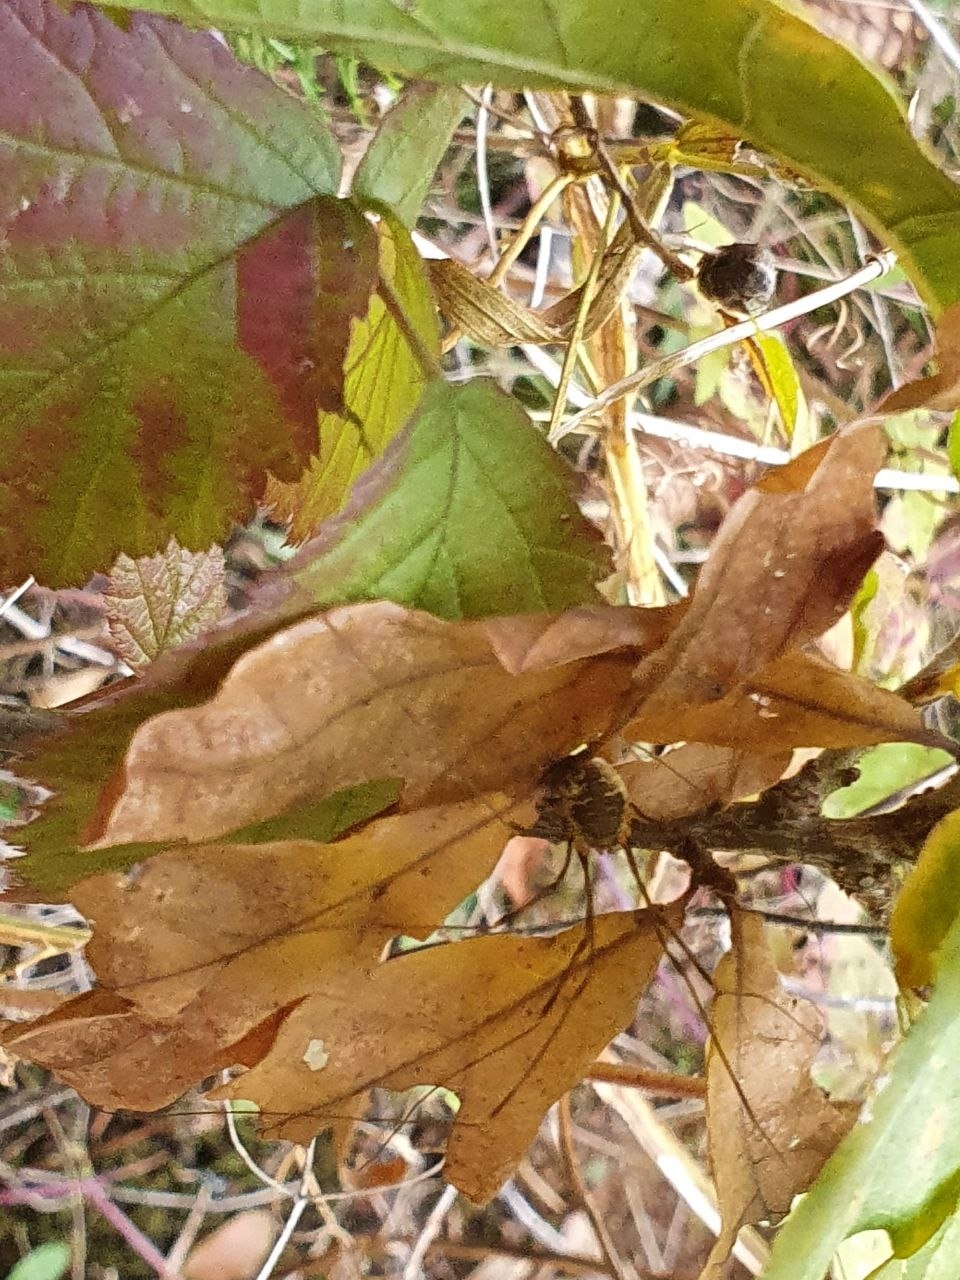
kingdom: Animalia
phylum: Arthropoda
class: Arachnida
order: Opiliones
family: Phalangiidae
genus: Opilio
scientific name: Opilio canestrinii
